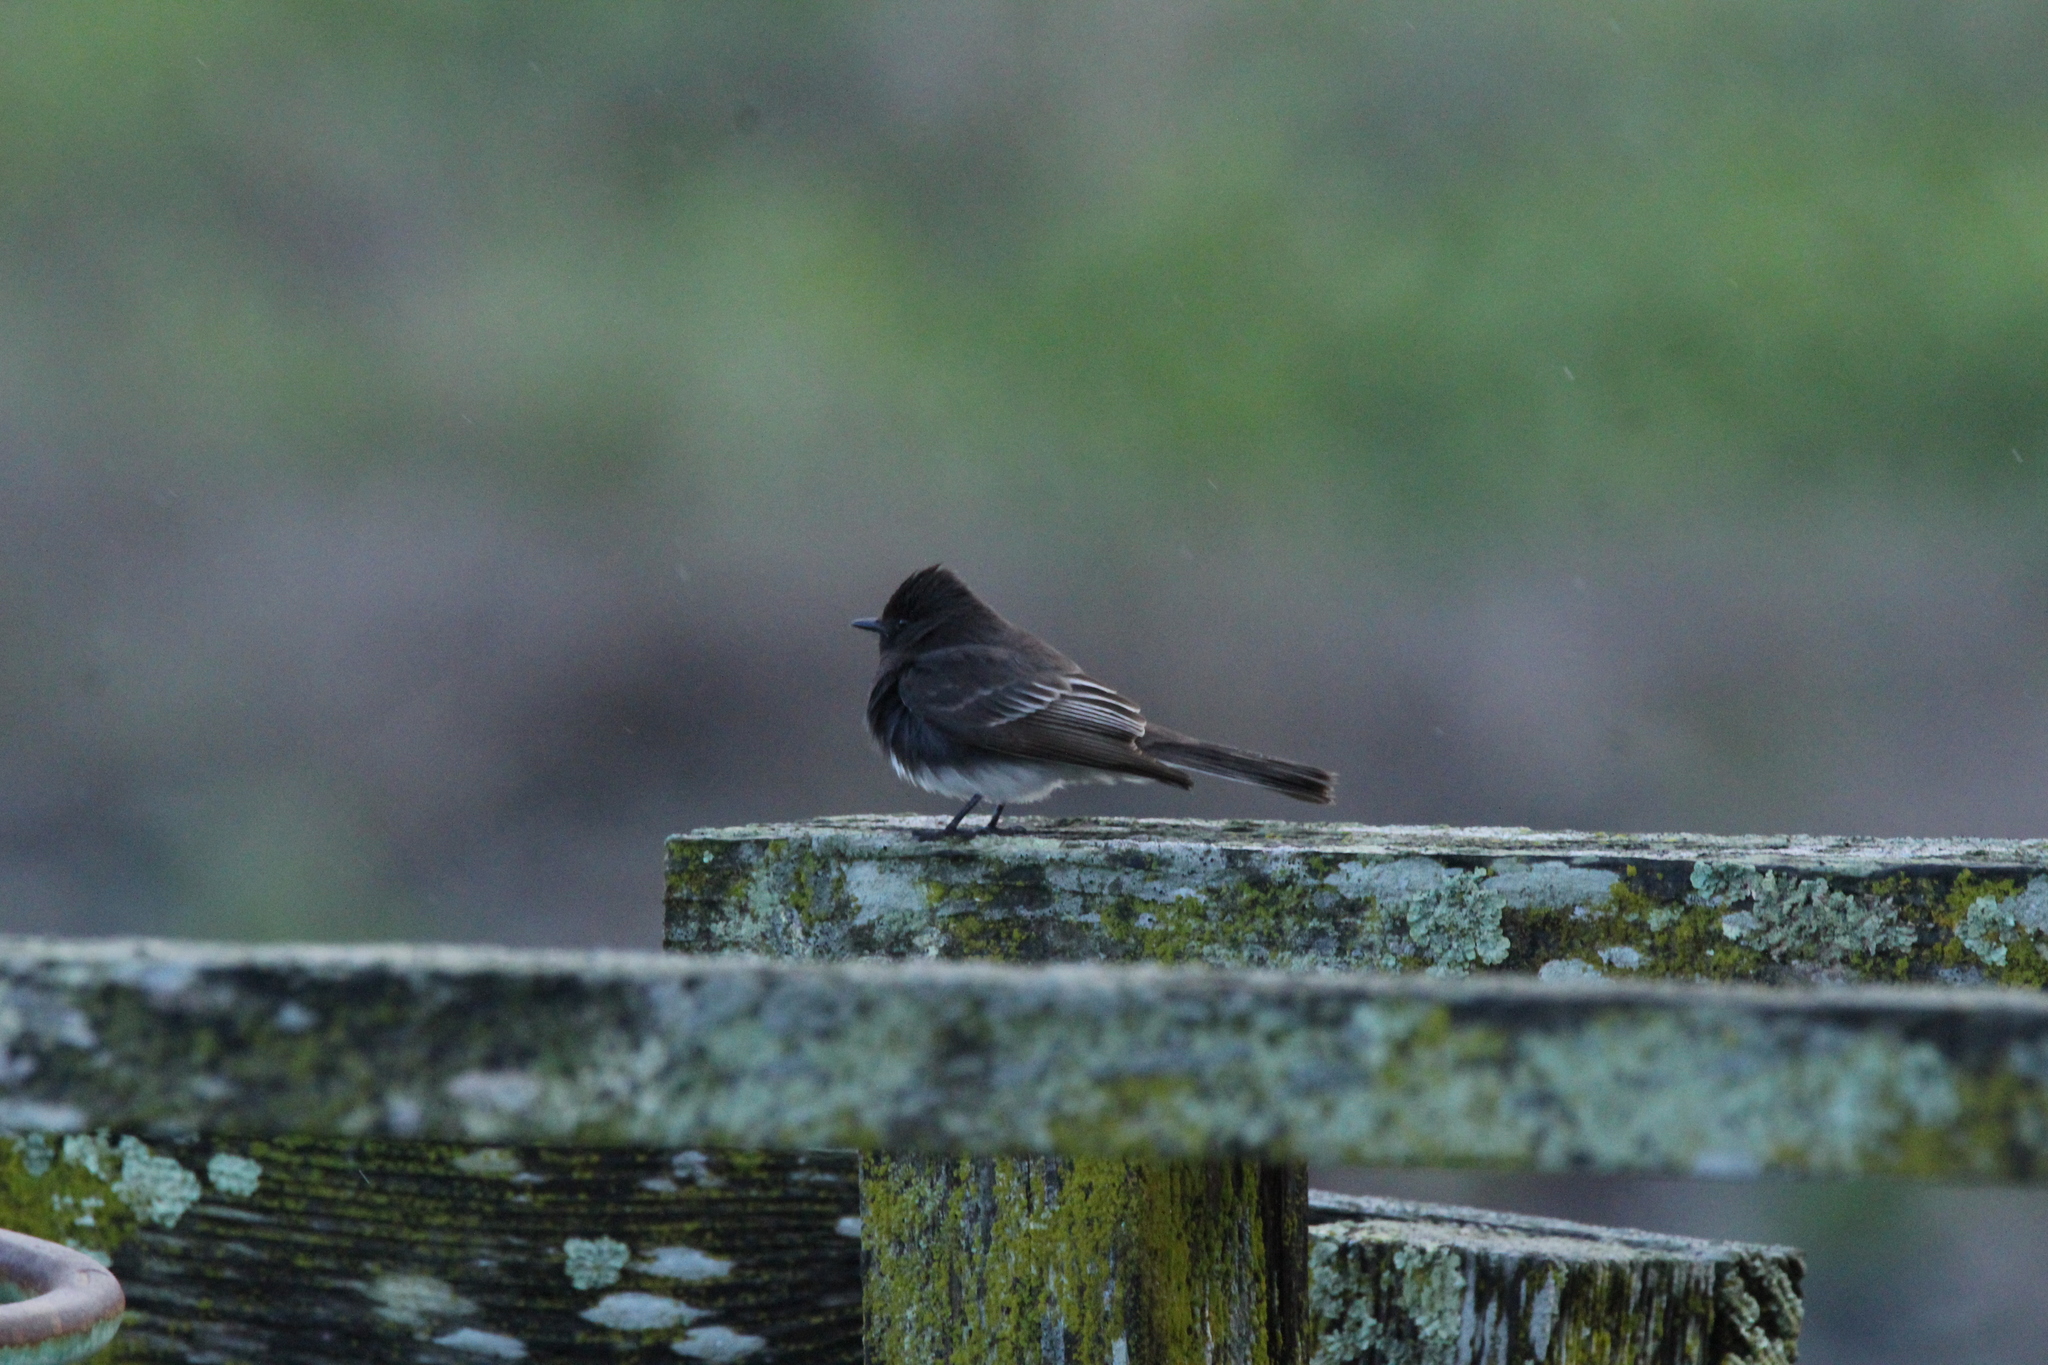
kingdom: Animalia
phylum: Chordata
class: Aves
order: Passeriformes
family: Tyrannidae
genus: Sayornis
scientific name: Sayornis nigricans
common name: Black phoebe
